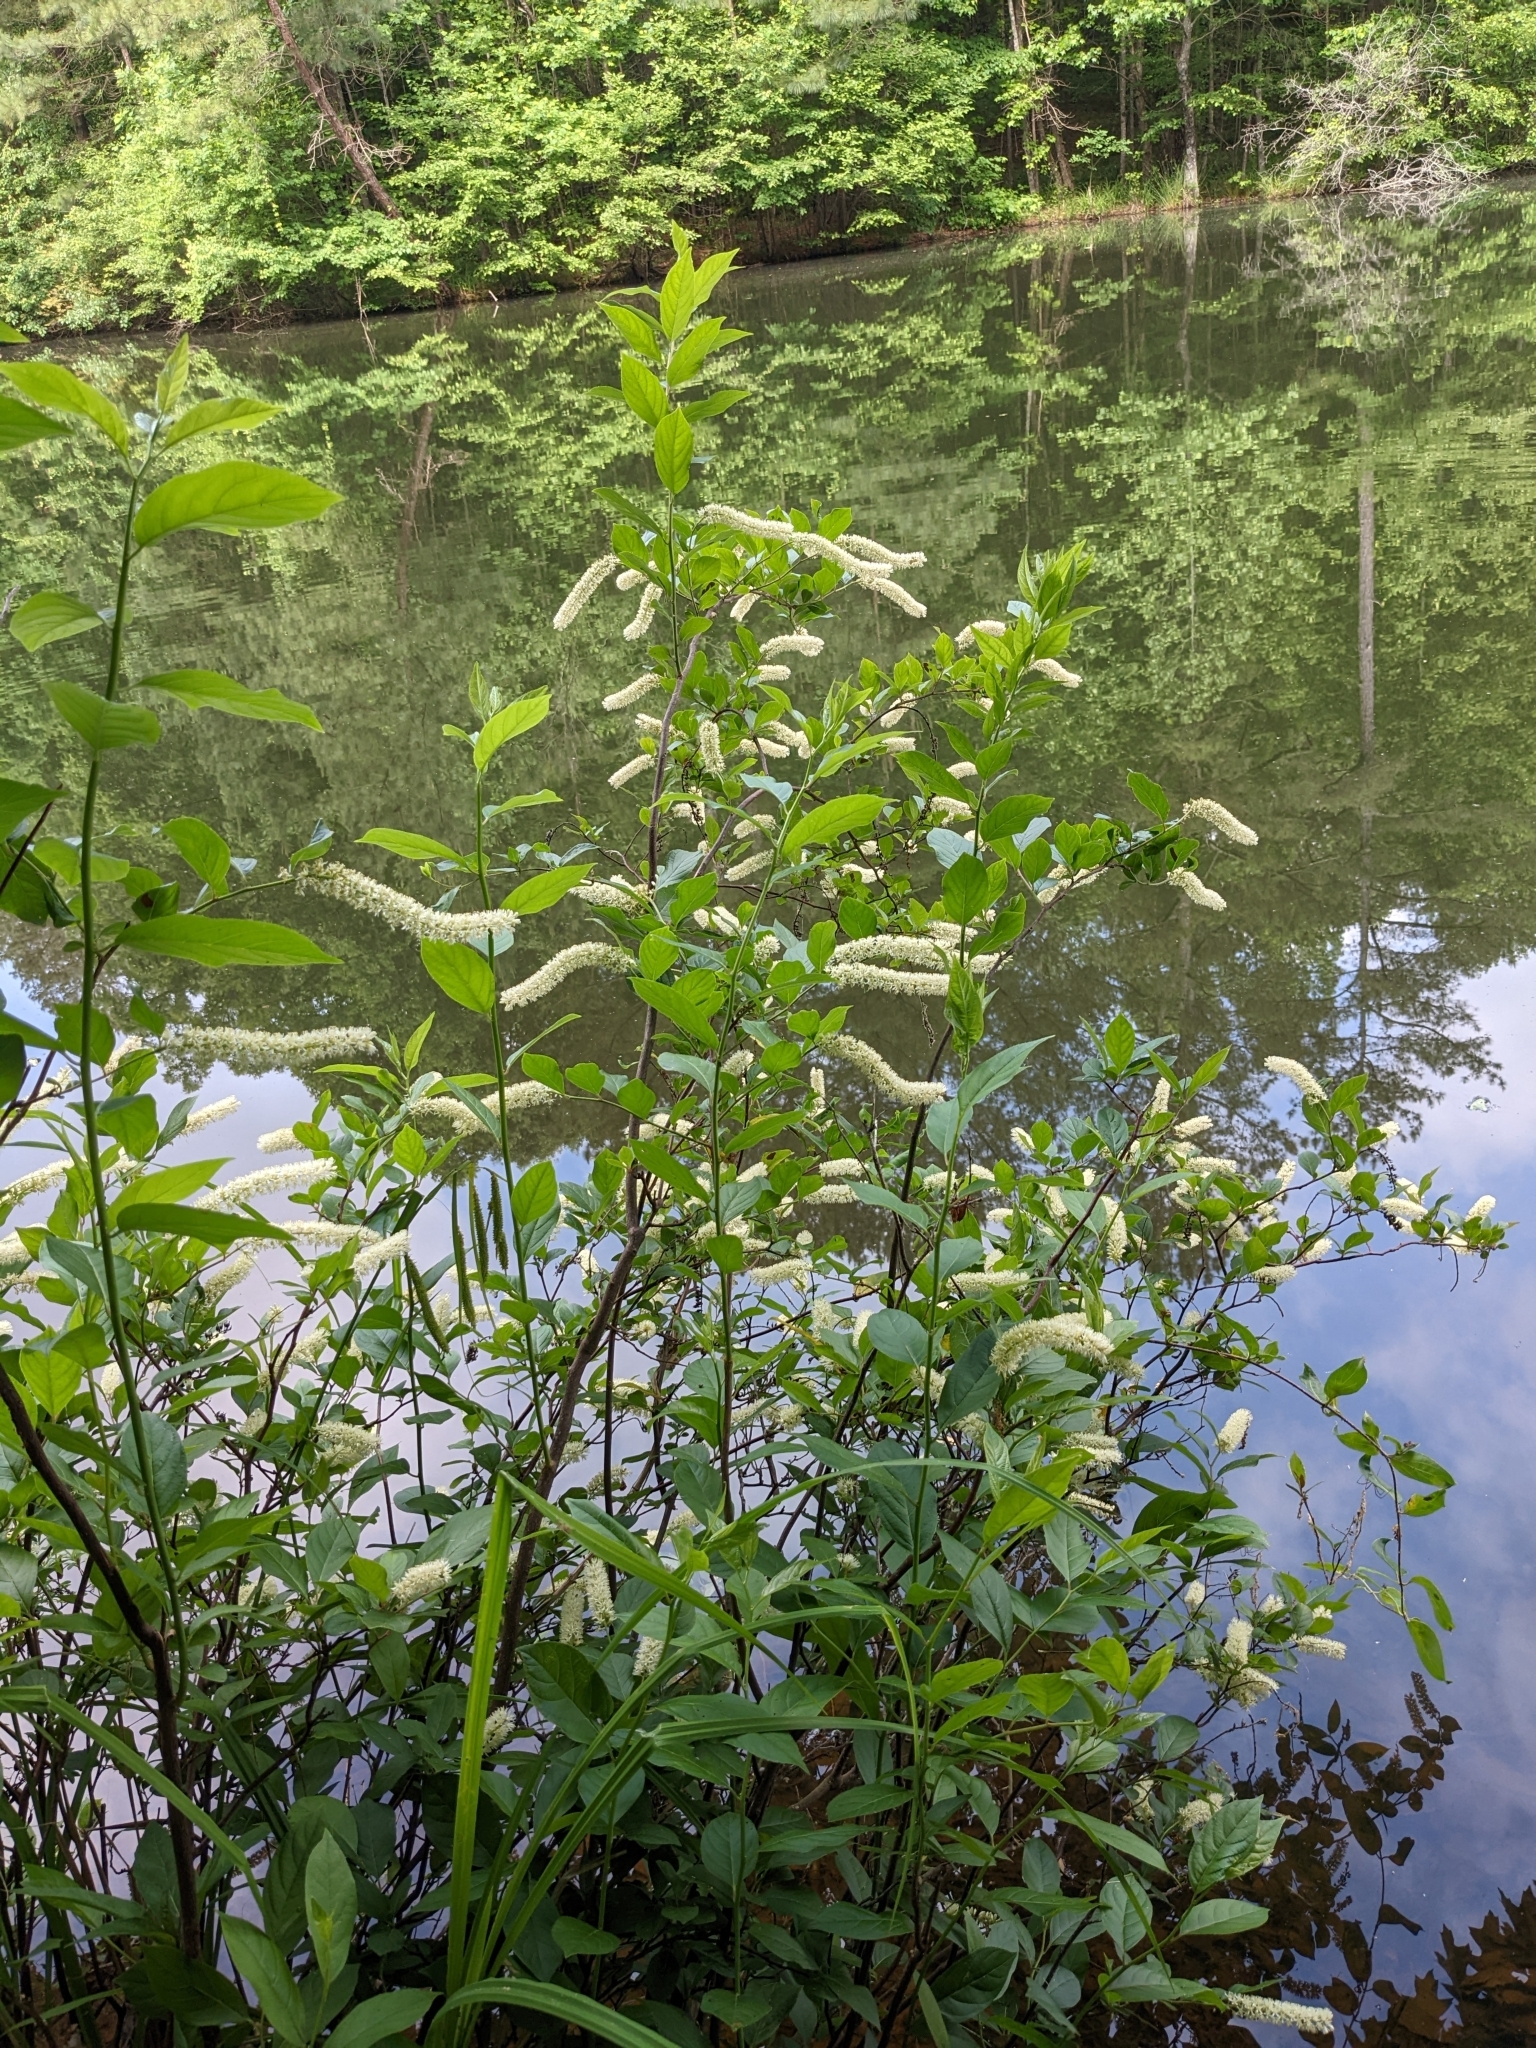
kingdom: Plantae
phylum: Tracheophyta
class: Magnoliopsida
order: Saxifragales
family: Iteaceae
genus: Itea
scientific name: Itea virginica
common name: Sweetspire
